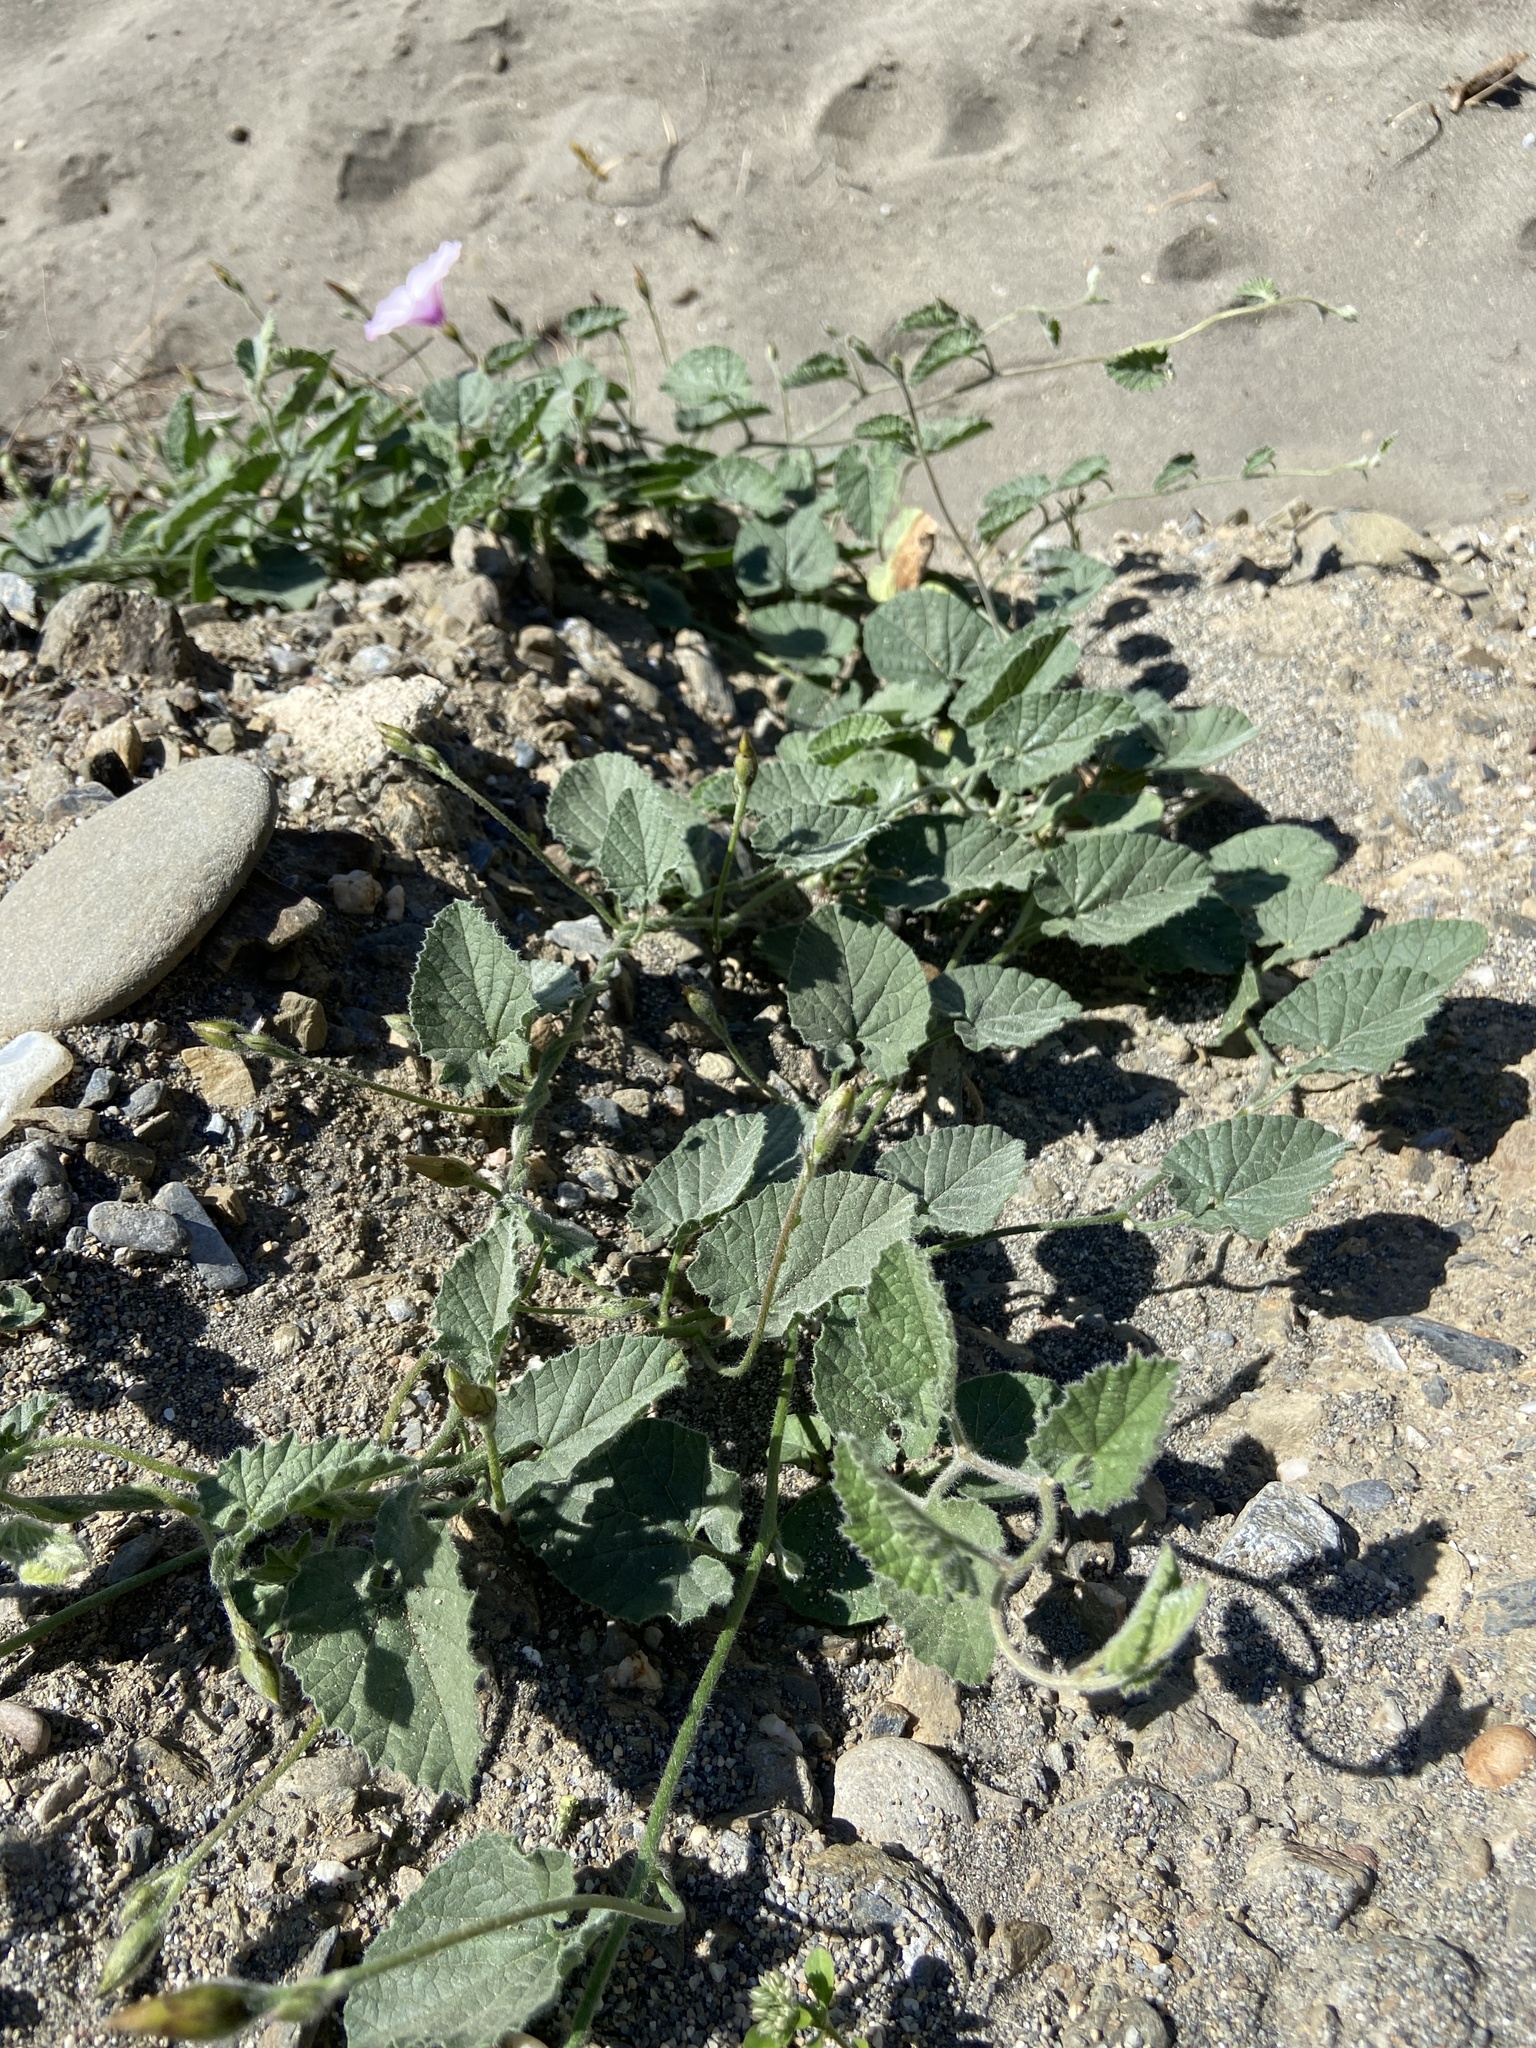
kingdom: Plantae
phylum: Tracheophyta
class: Magnoliopsida
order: Solanales
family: Convolvulaceae
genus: Convolvulus
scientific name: Convolvulus althaeoides
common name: Mallow bindweed
